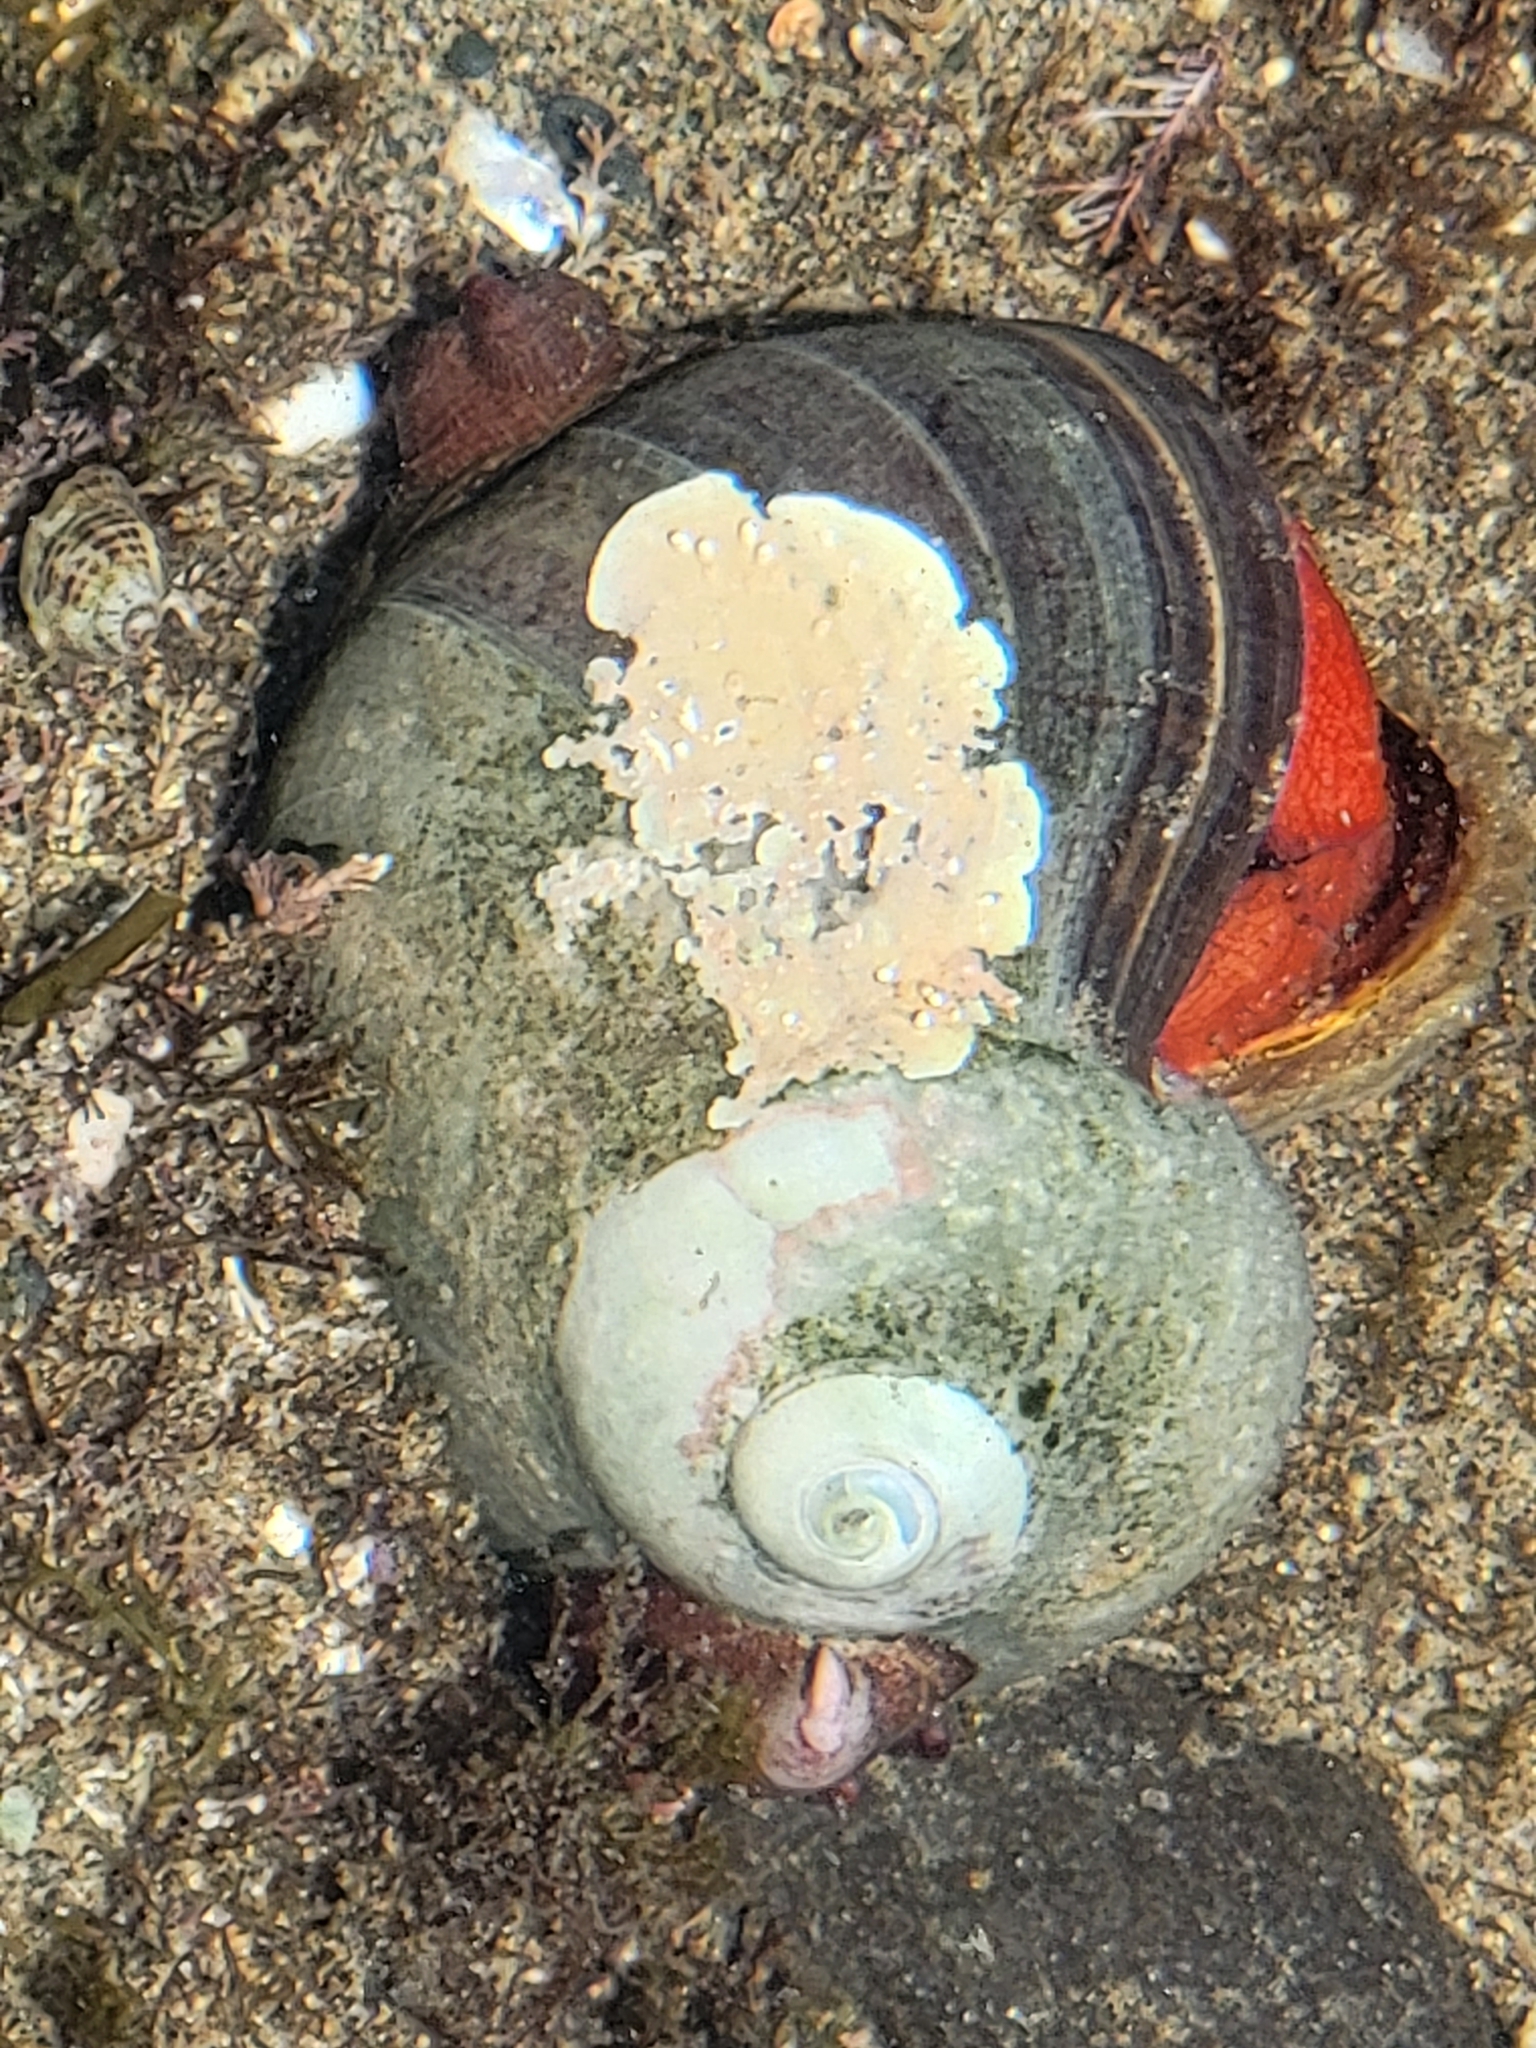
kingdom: Animalia
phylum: Mollusca
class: Gastropoda
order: Trochida
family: Tegulidae
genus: Norrisia
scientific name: Norrisia norrisii
